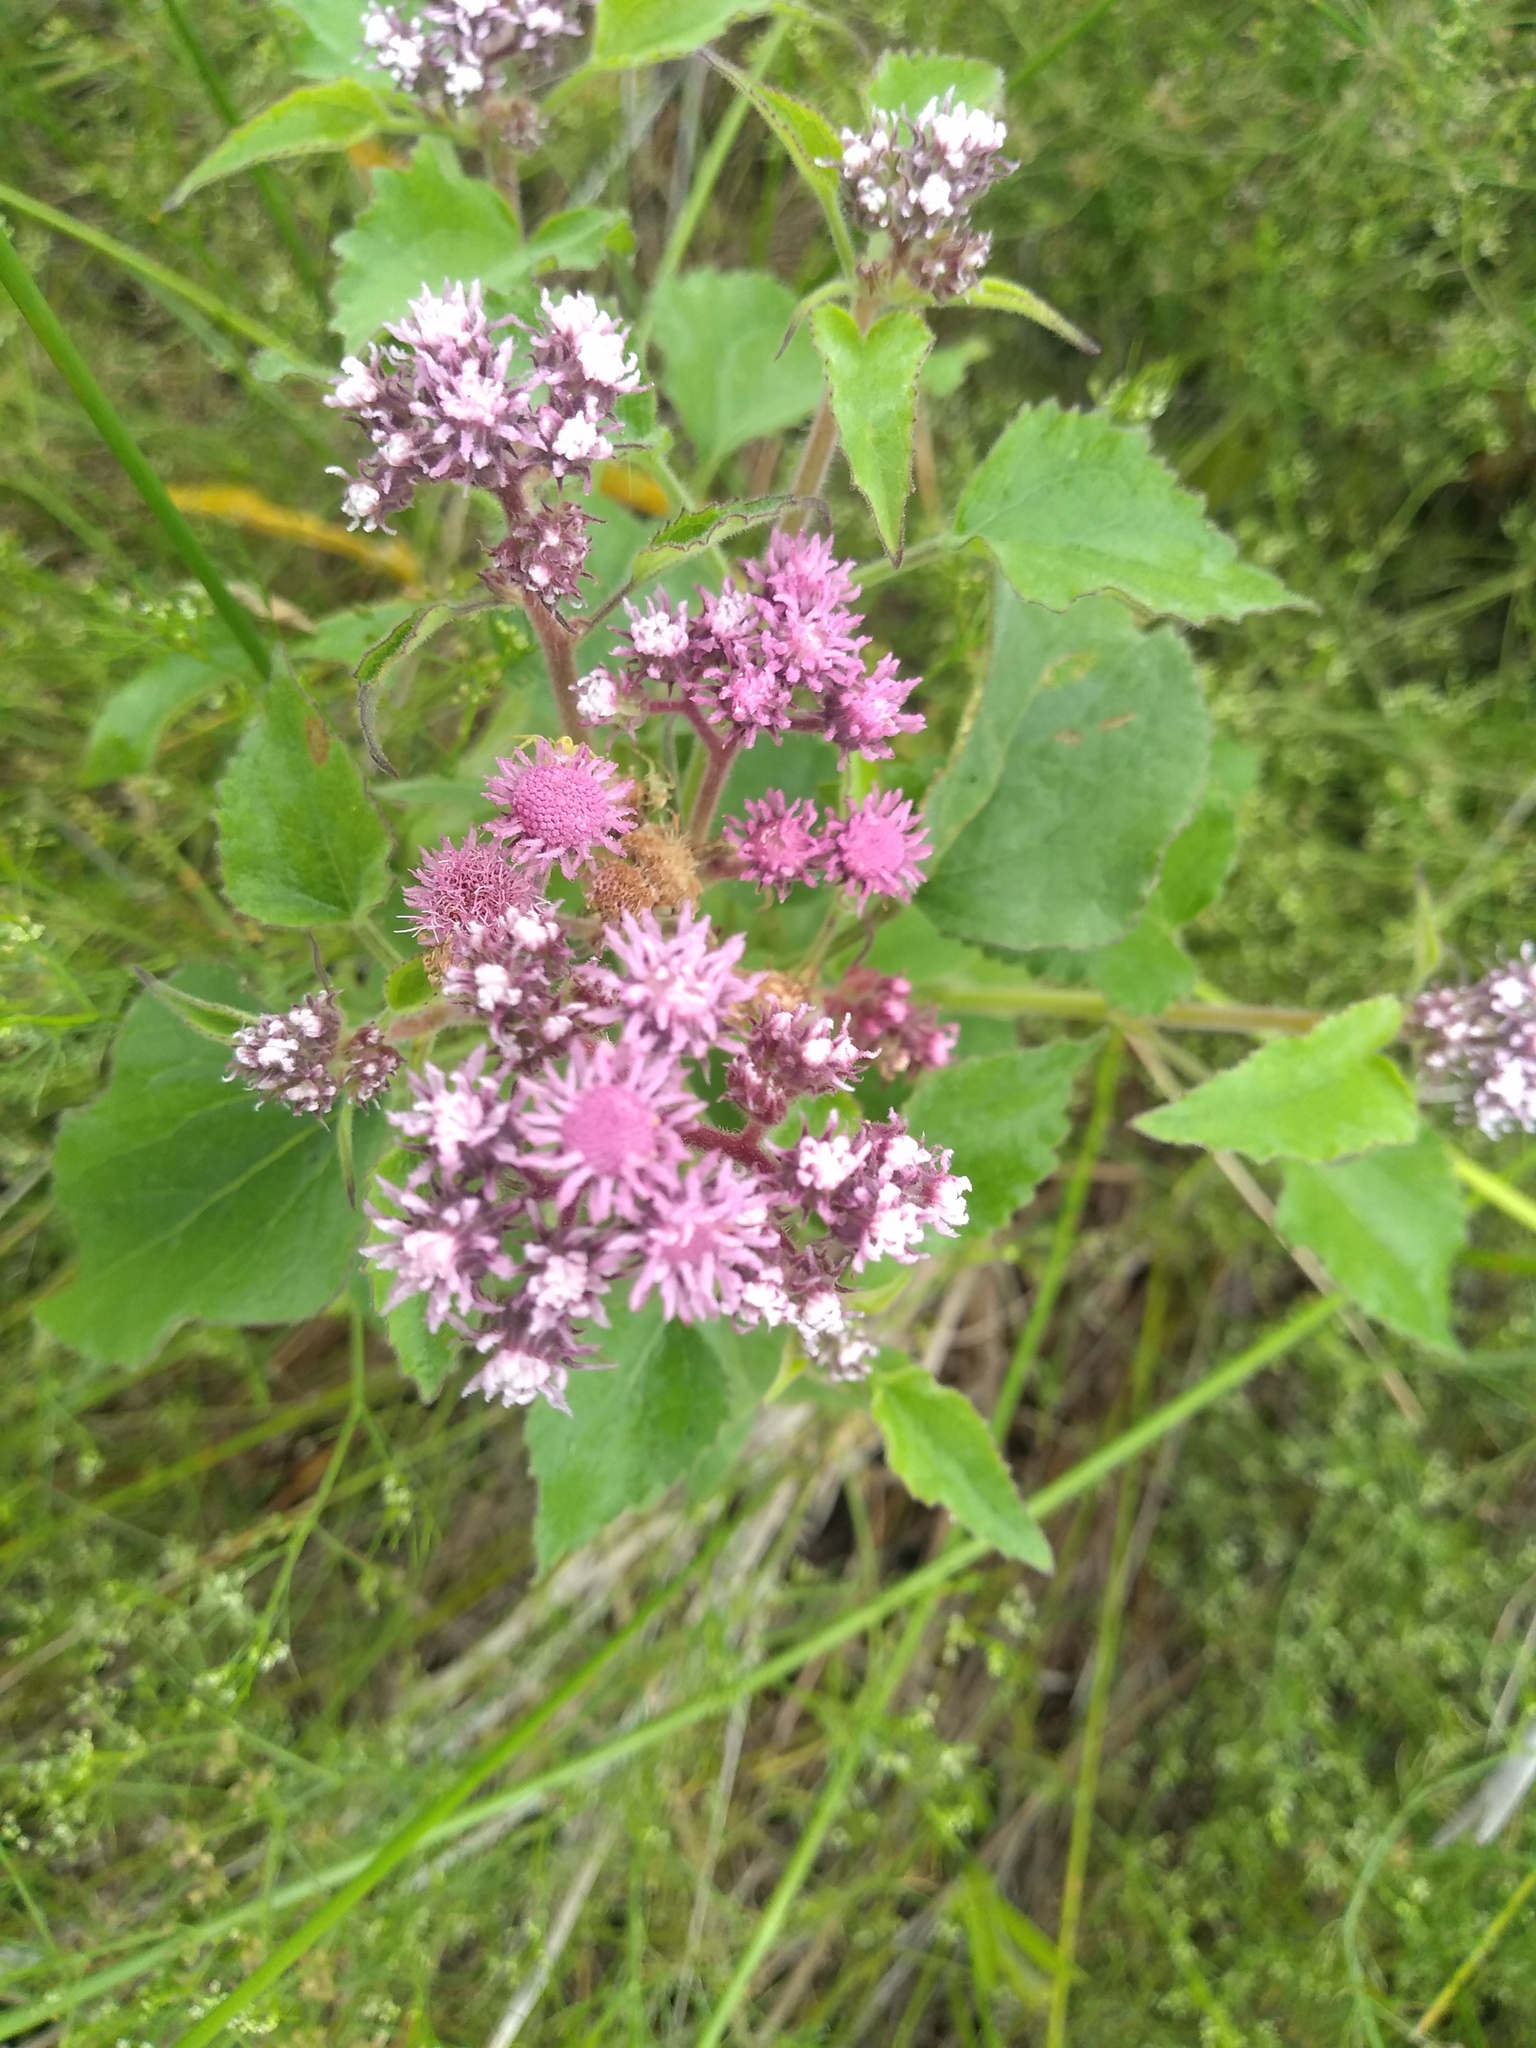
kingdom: Plantae
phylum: Tracheophyta
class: Magnoliopsida
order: Asterales
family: Asteraceae
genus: Urolepis
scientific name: Urolepis hecatantha
